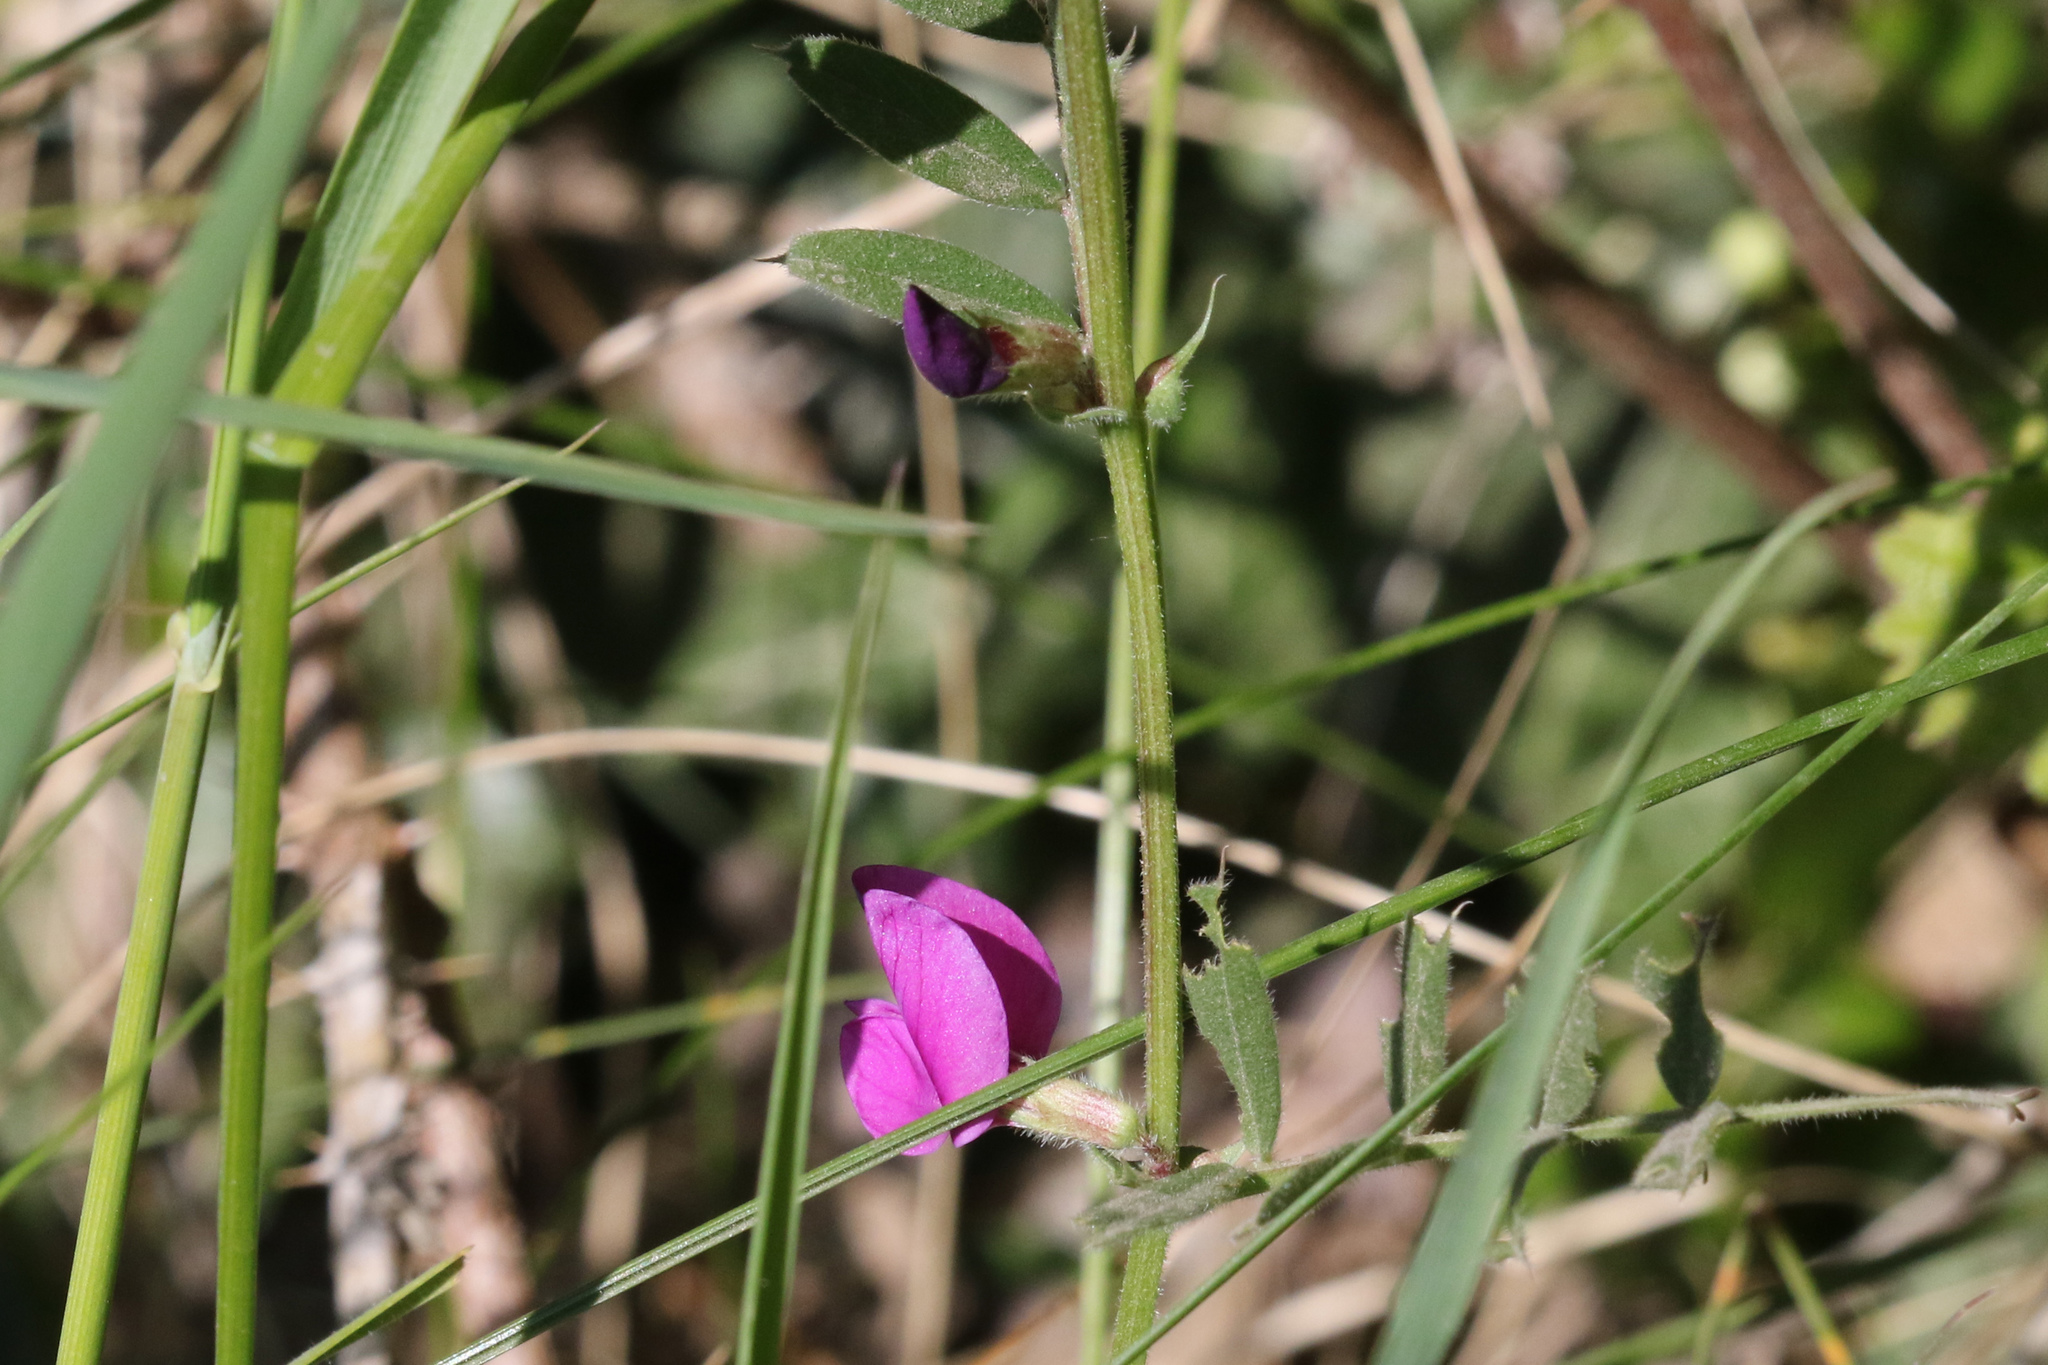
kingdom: Plantae
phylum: Tracheophyta
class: Magnoliopsida
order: Fabales
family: Fabaceae
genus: Vicia
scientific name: Vicia sativa
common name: Garden vetch
